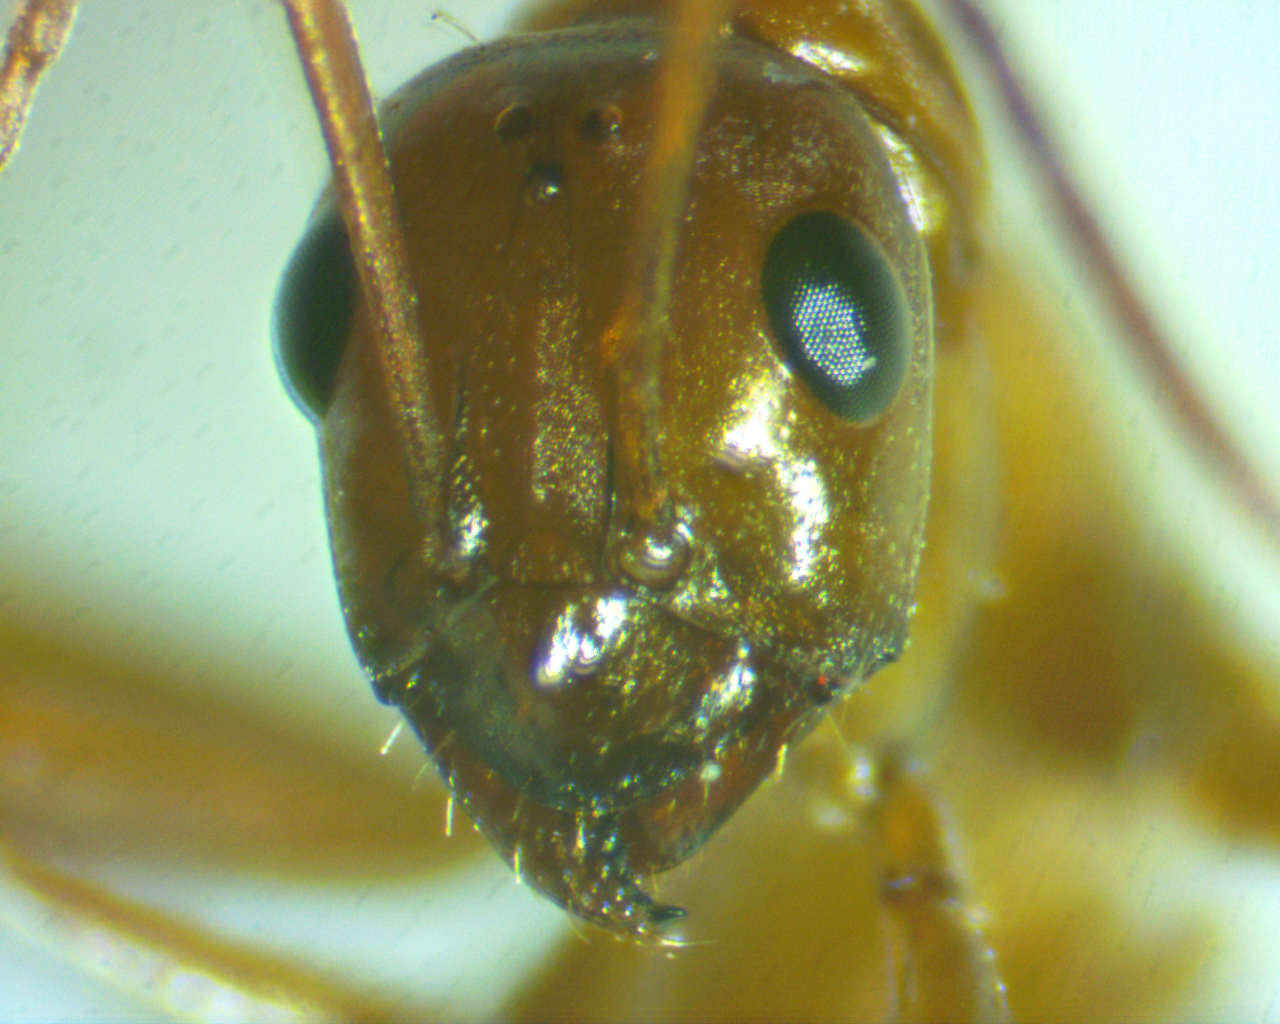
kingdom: Animalia
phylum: Arthropoda
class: Insecta
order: Hymenoptera
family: Formicidae
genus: Formica
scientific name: Formica pallidefulva
